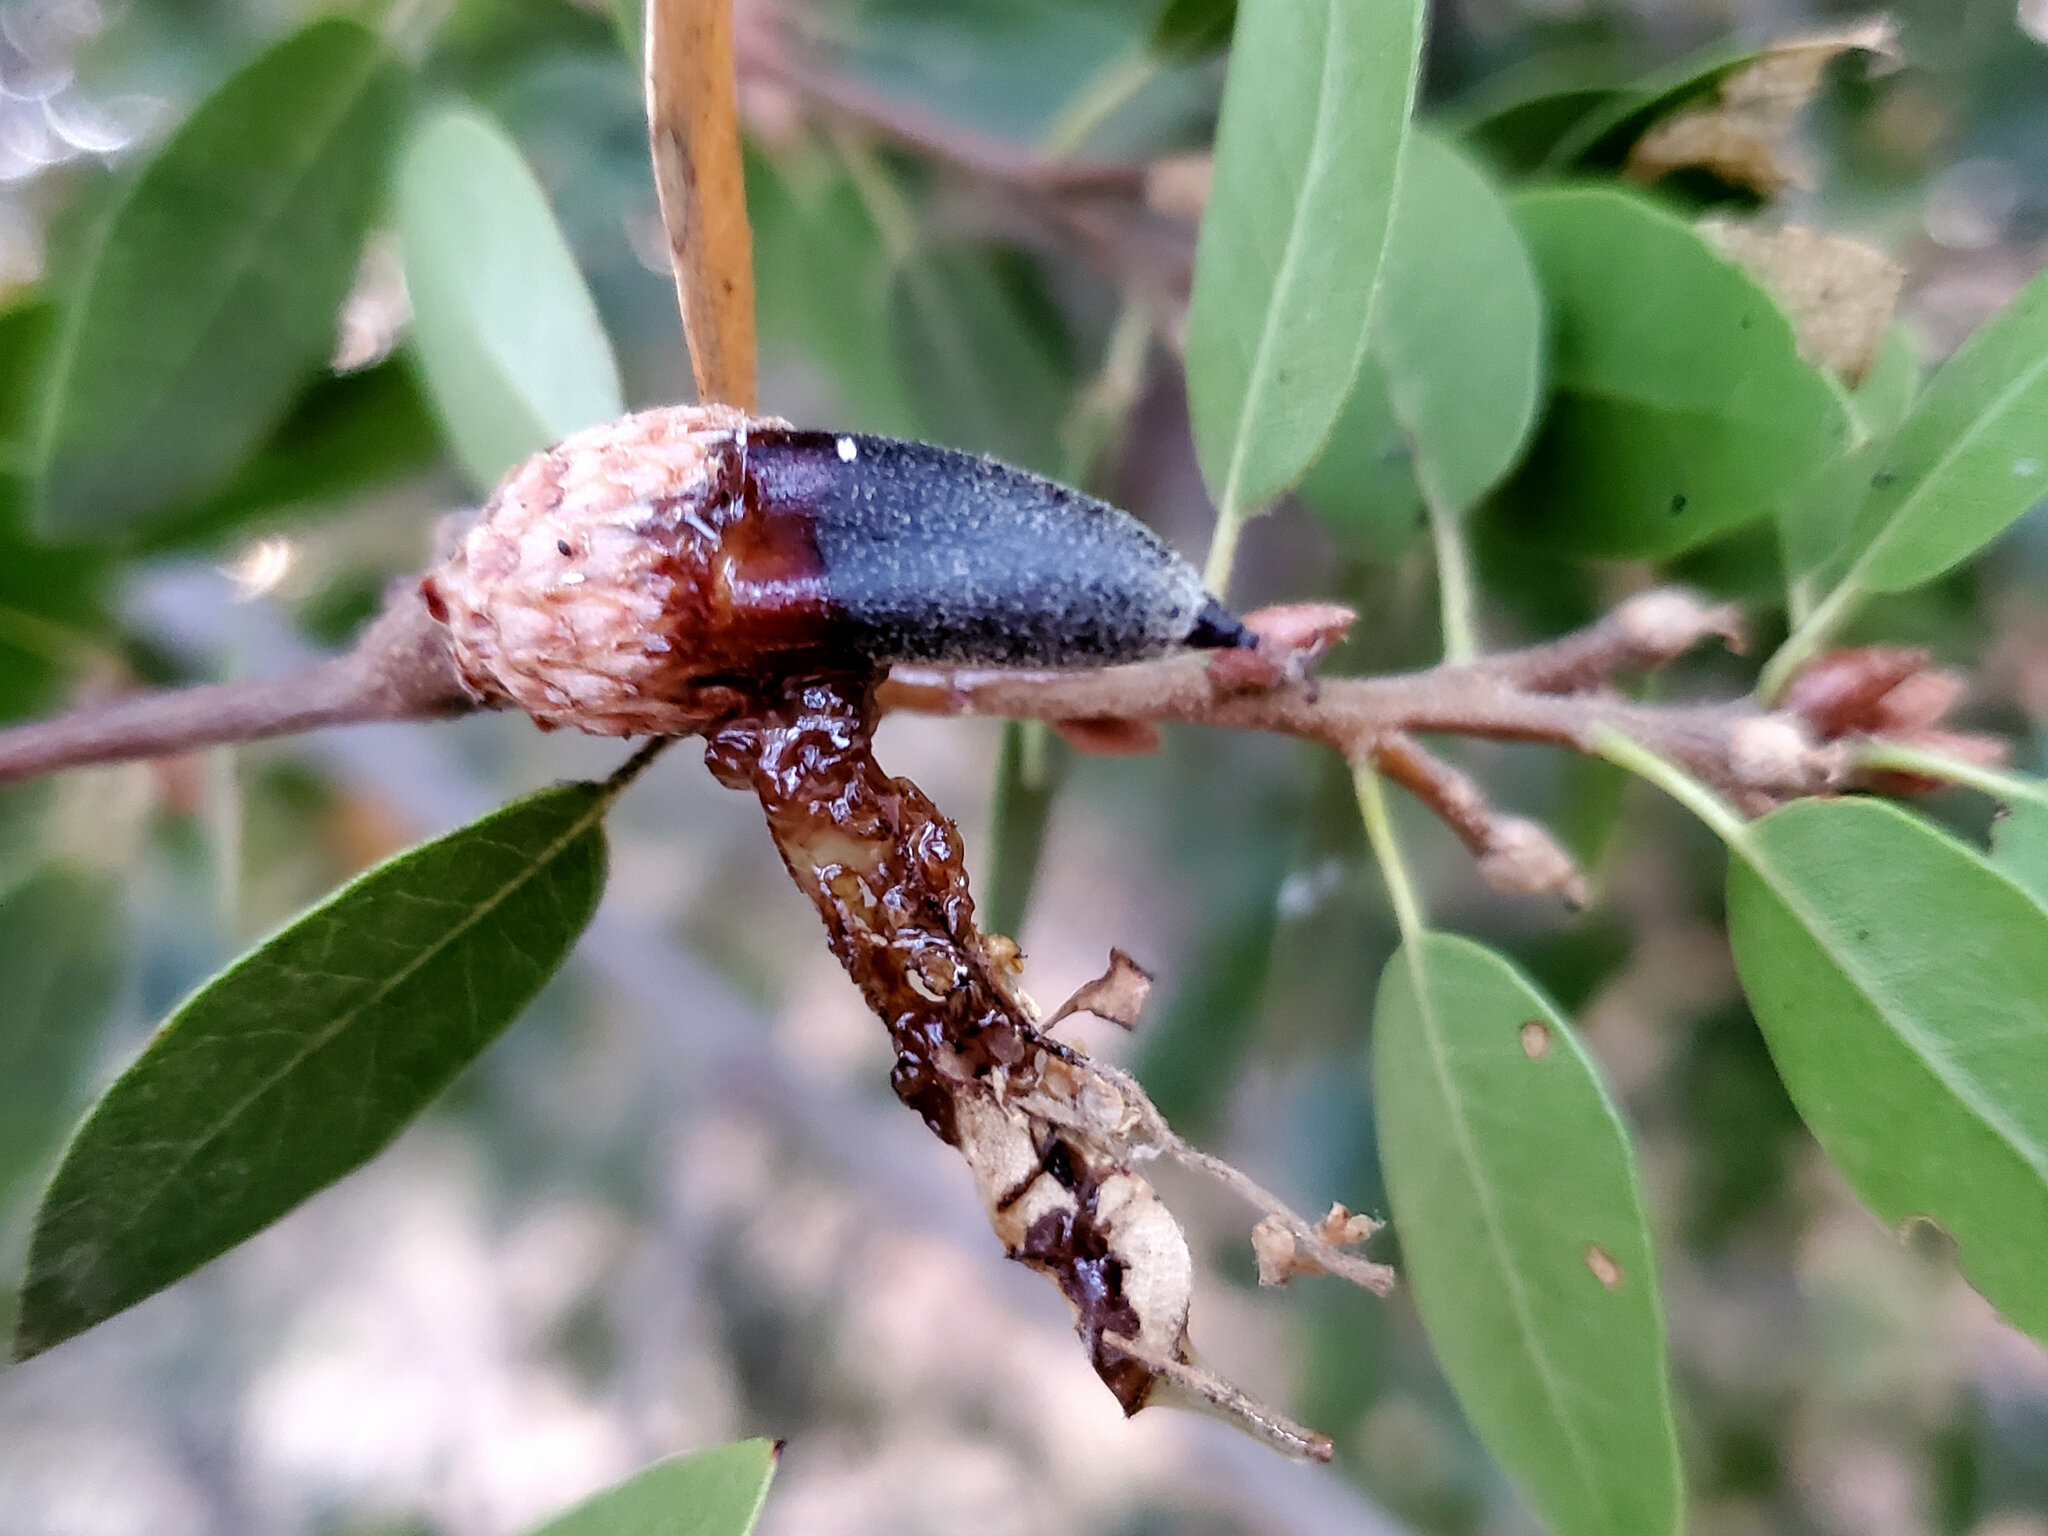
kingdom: Bacteria
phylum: Proteobacteria
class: Gammaproteobacteria
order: Enterobacterales
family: Enterobacteriaceae
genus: Lonsdalea
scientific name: Lonsdalea quercina
